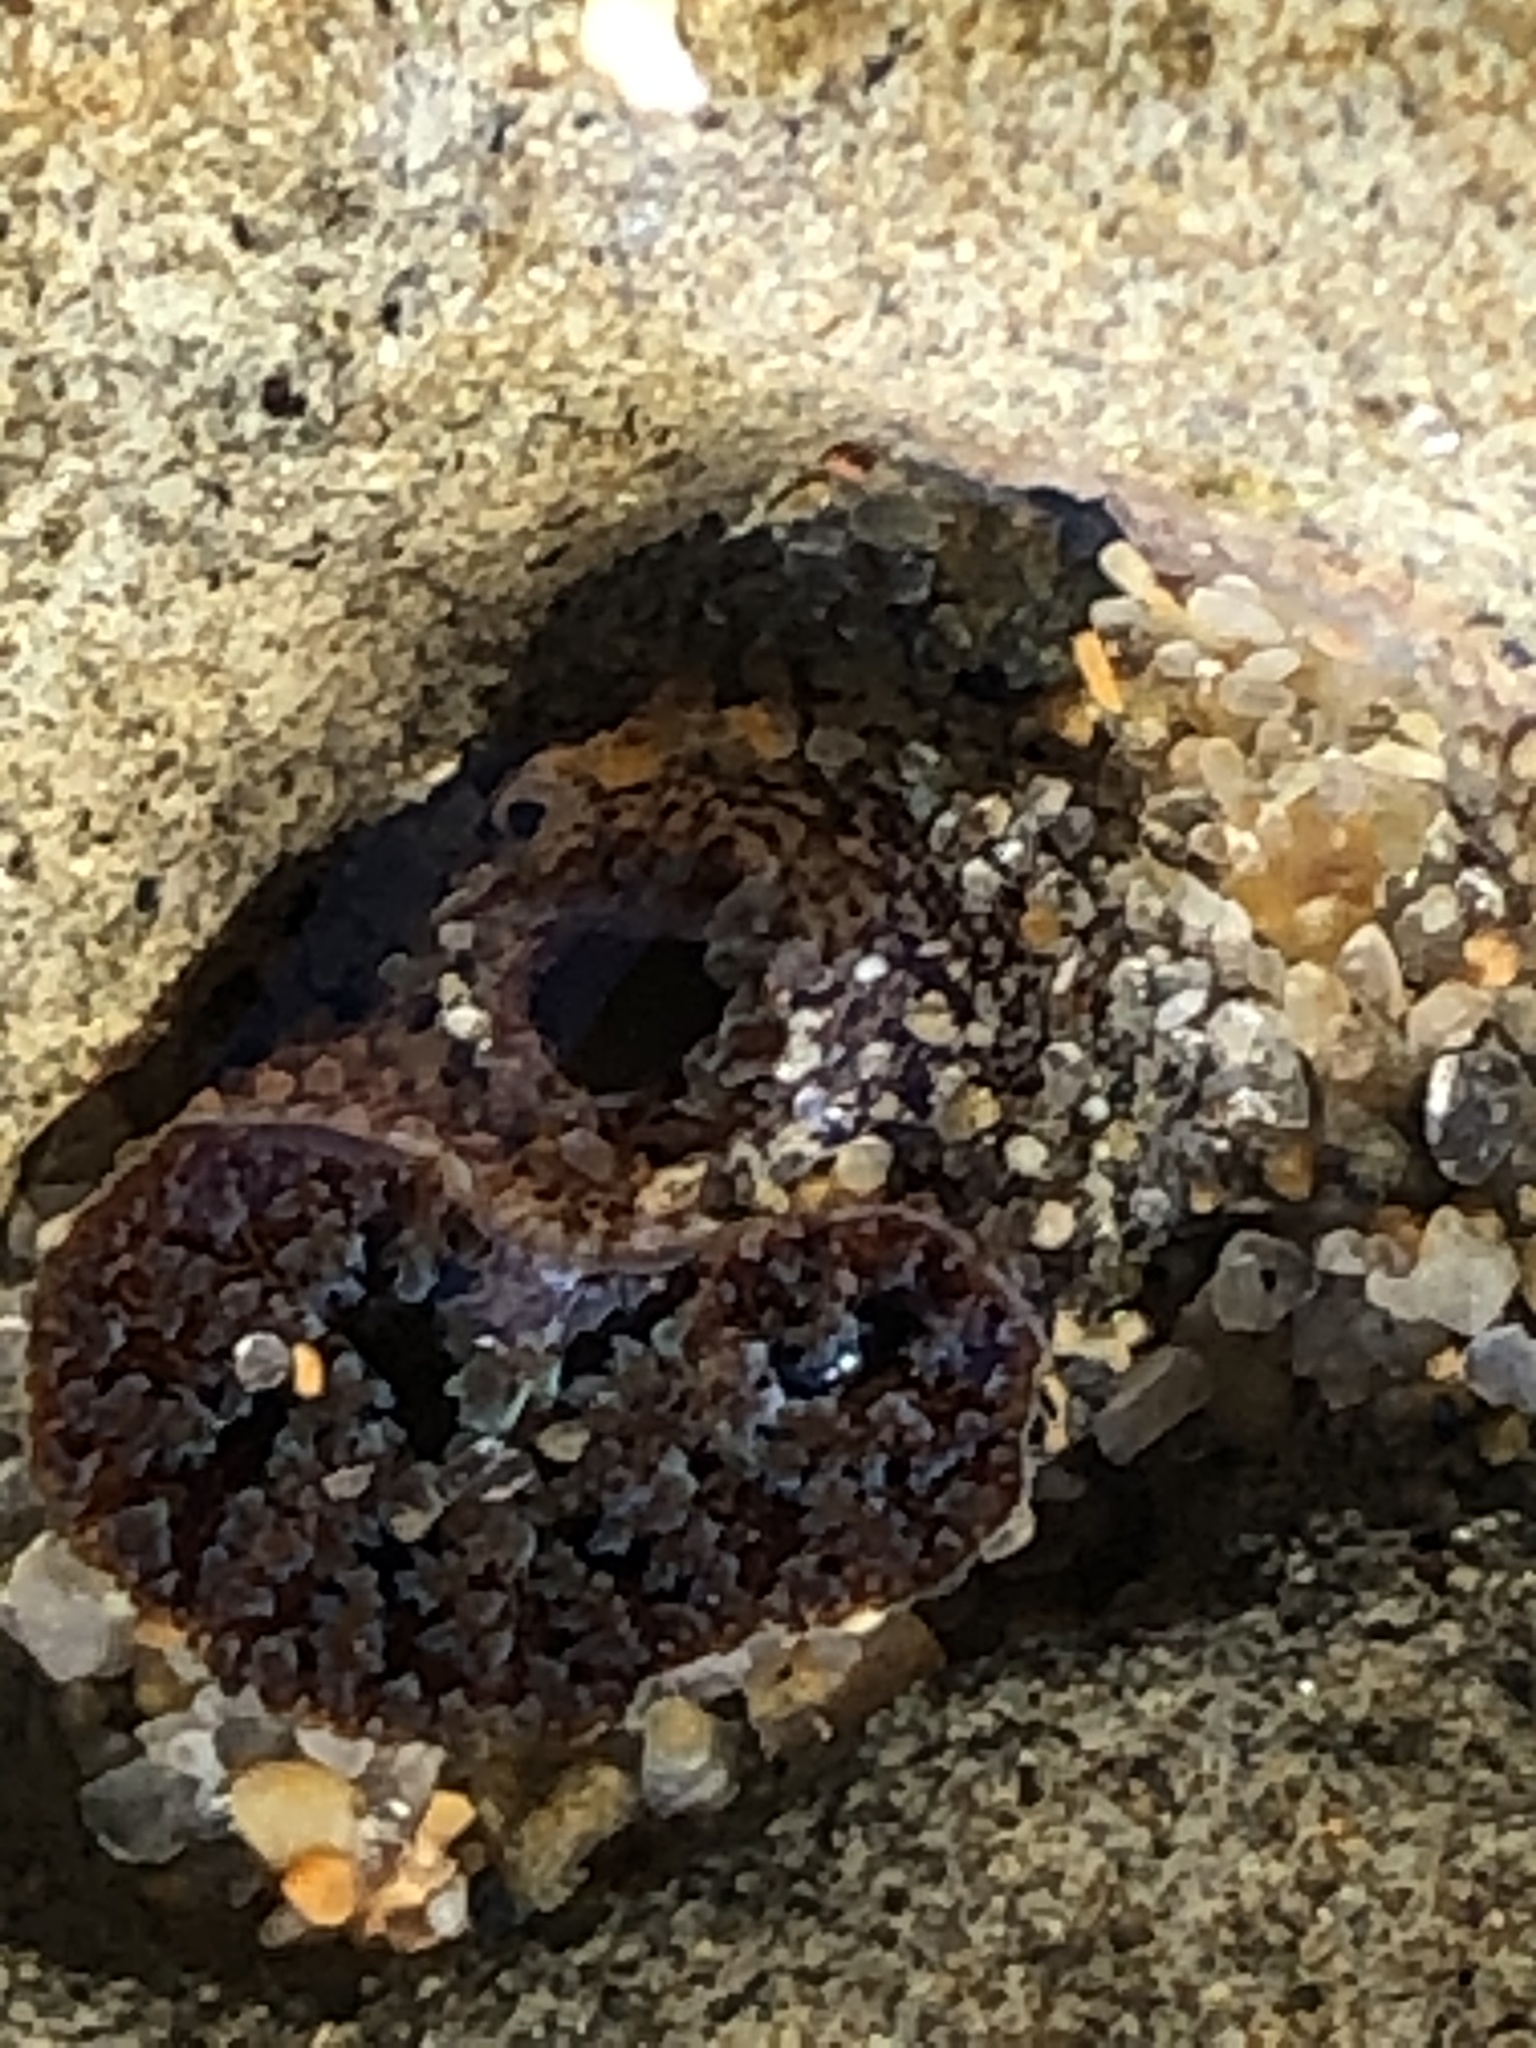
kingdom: Animalia
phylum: Mollusca
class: Bivalvia
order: Myida
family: Pholadidae
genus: Parapholas
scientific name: Parapholas californica
